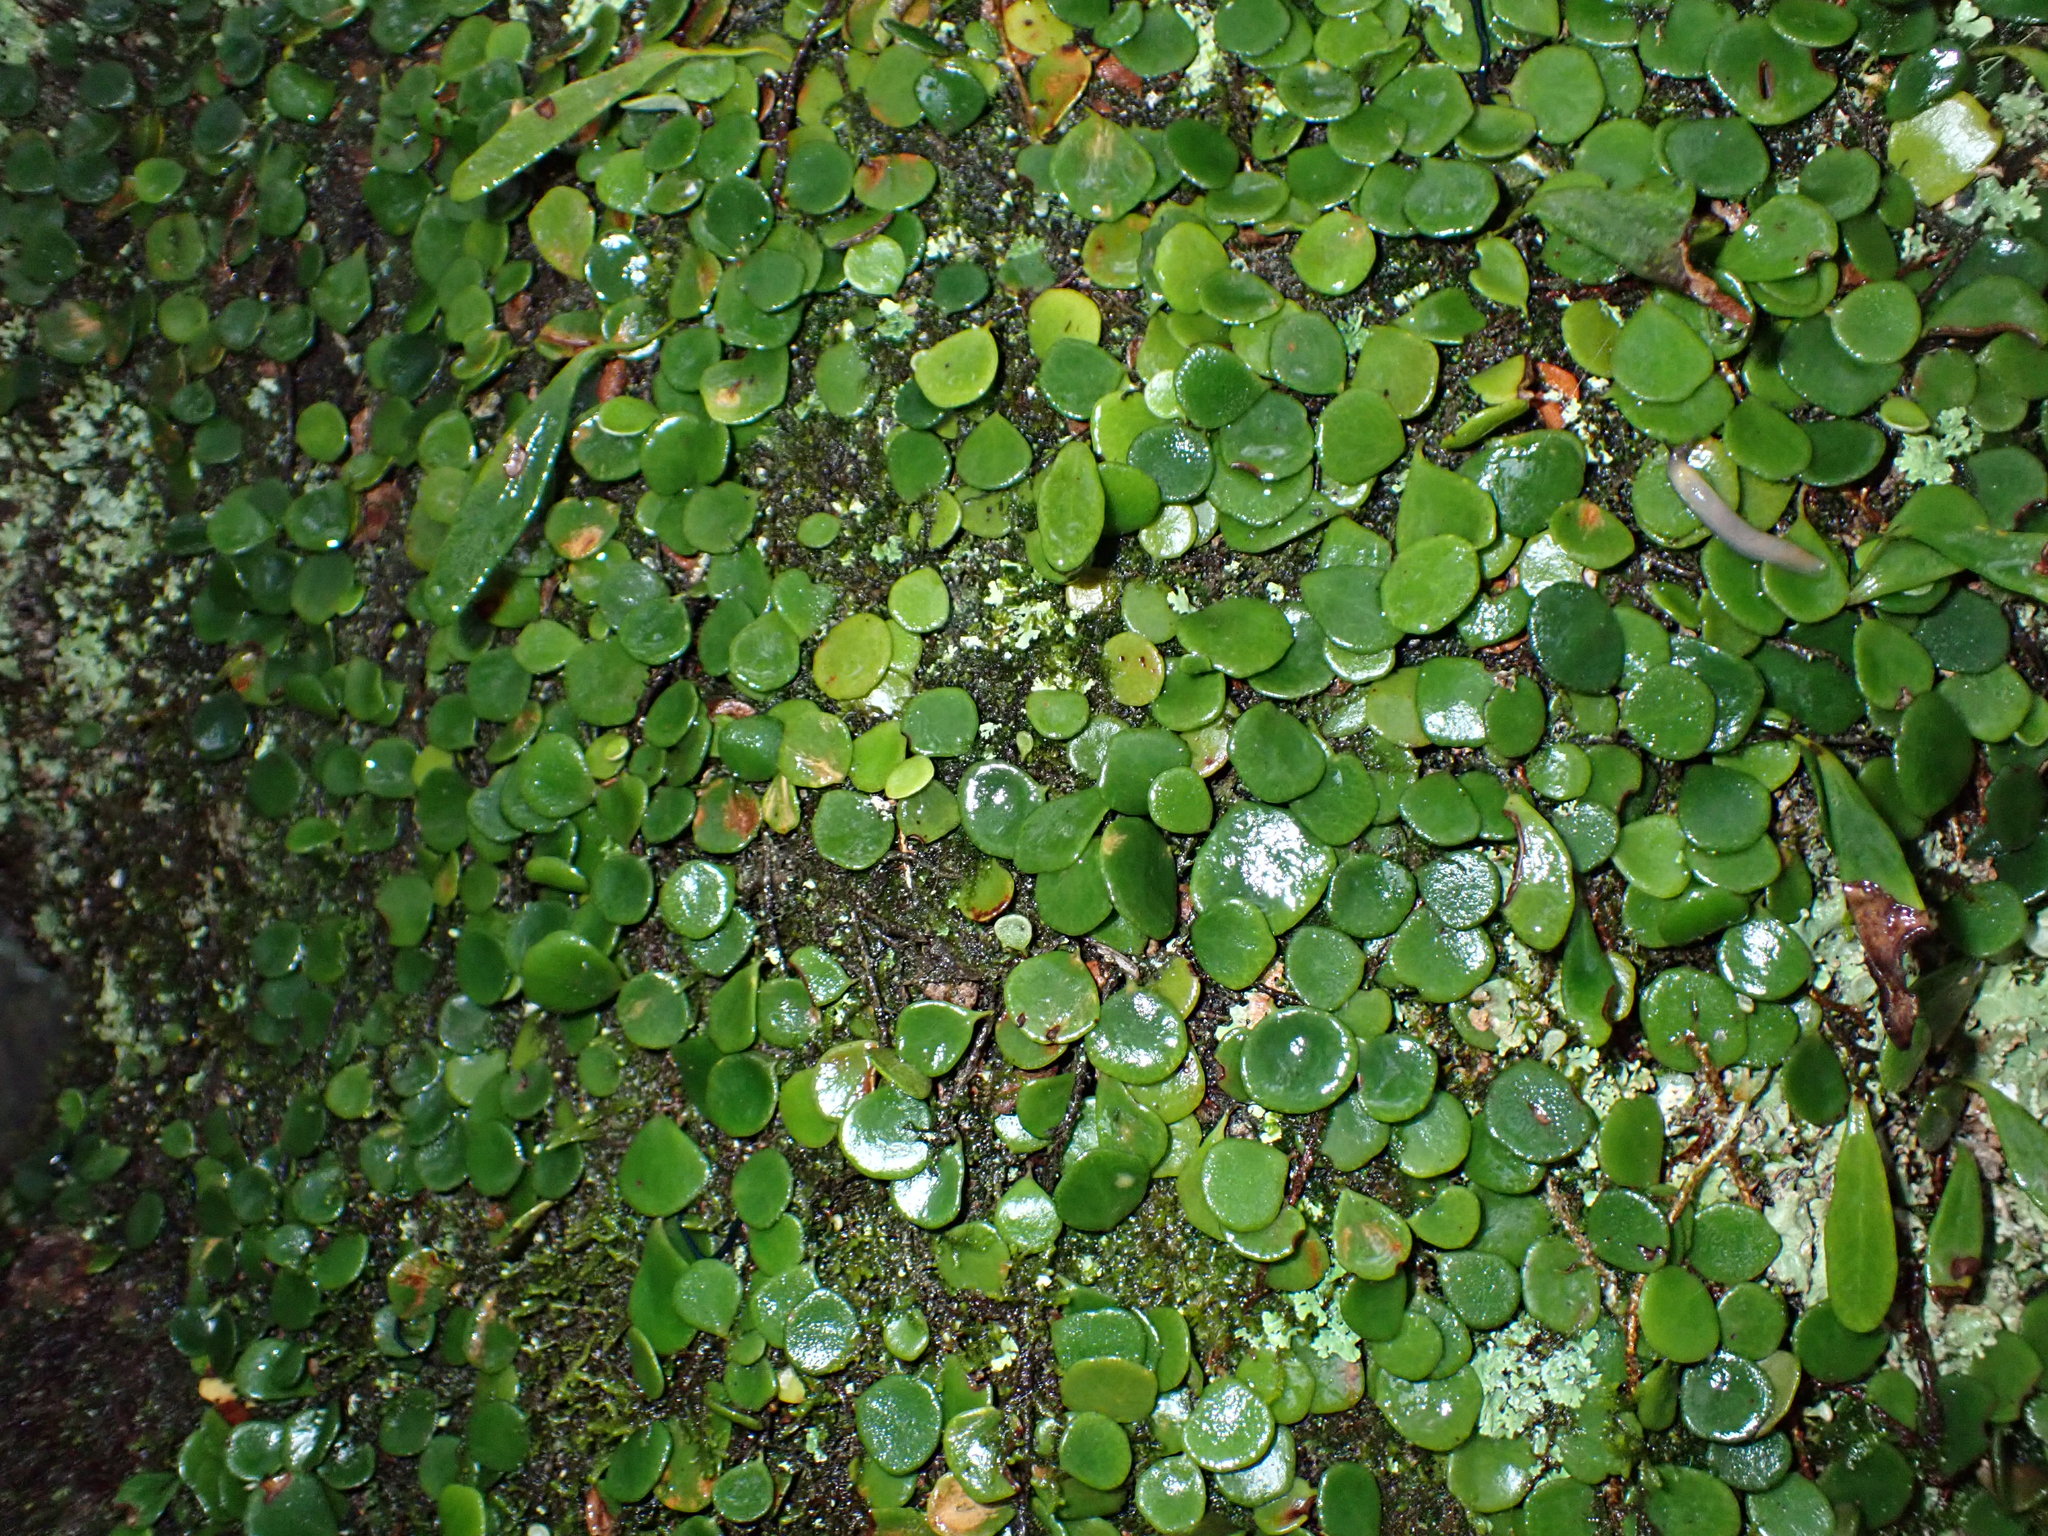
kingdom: Plantae
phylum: Tracheophyta
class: Polypodiopsida
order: Polypodiales
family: Polypodiaceae
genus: Pyrrosia
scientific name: Pyrrosia rupestris
